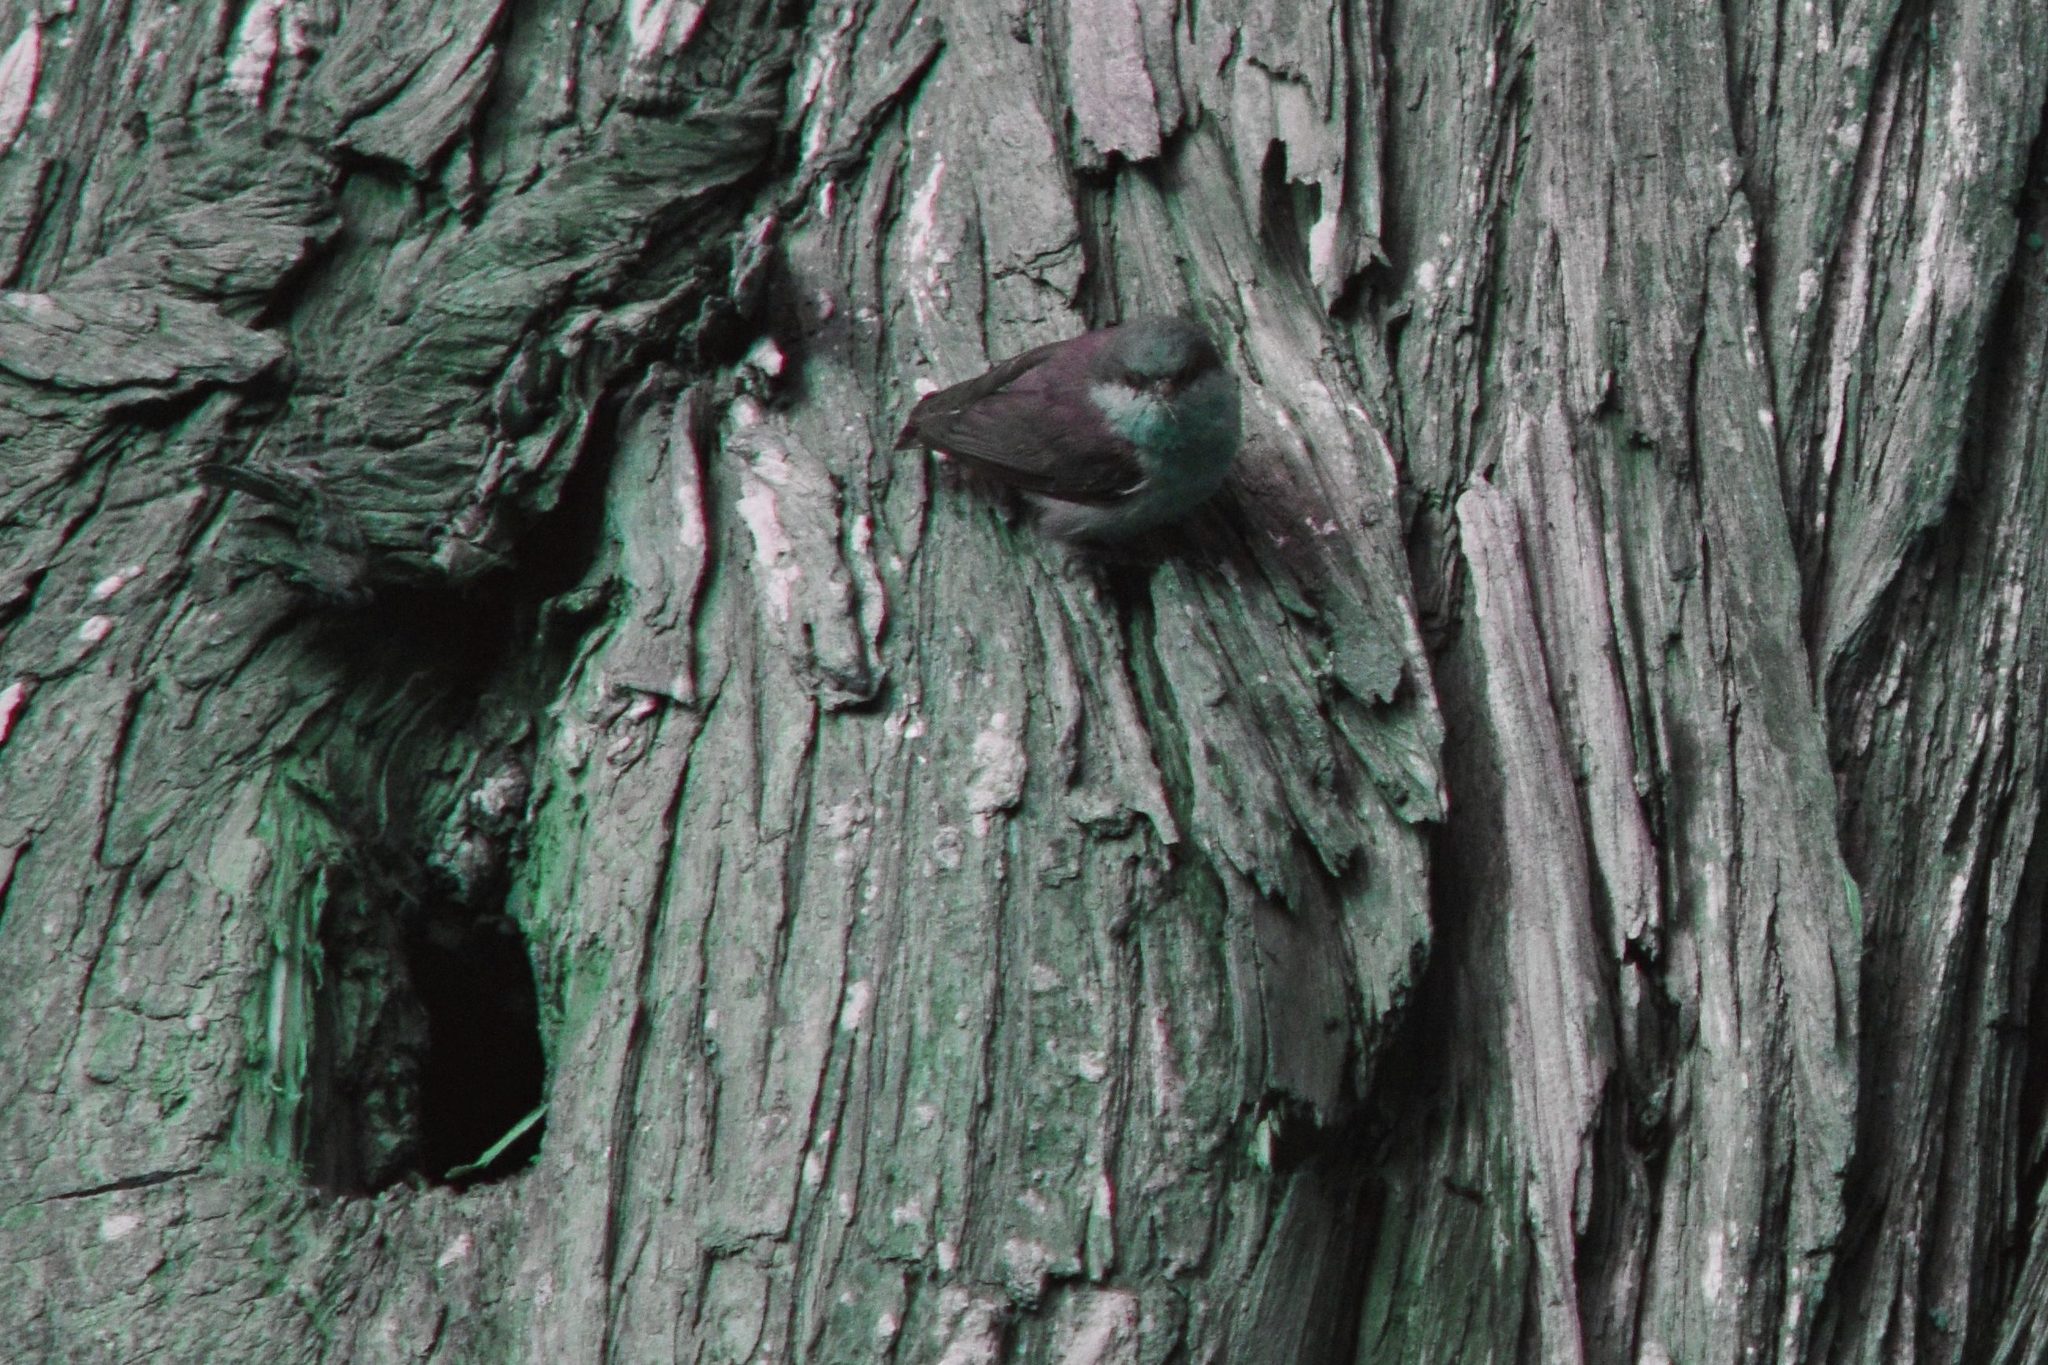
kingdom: Animalia
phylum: Chordata
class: Aves
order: Passeriformes
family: Sittidae
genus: Sitta
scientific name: Sitta pygmaea
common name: Pygmy nuthatch
